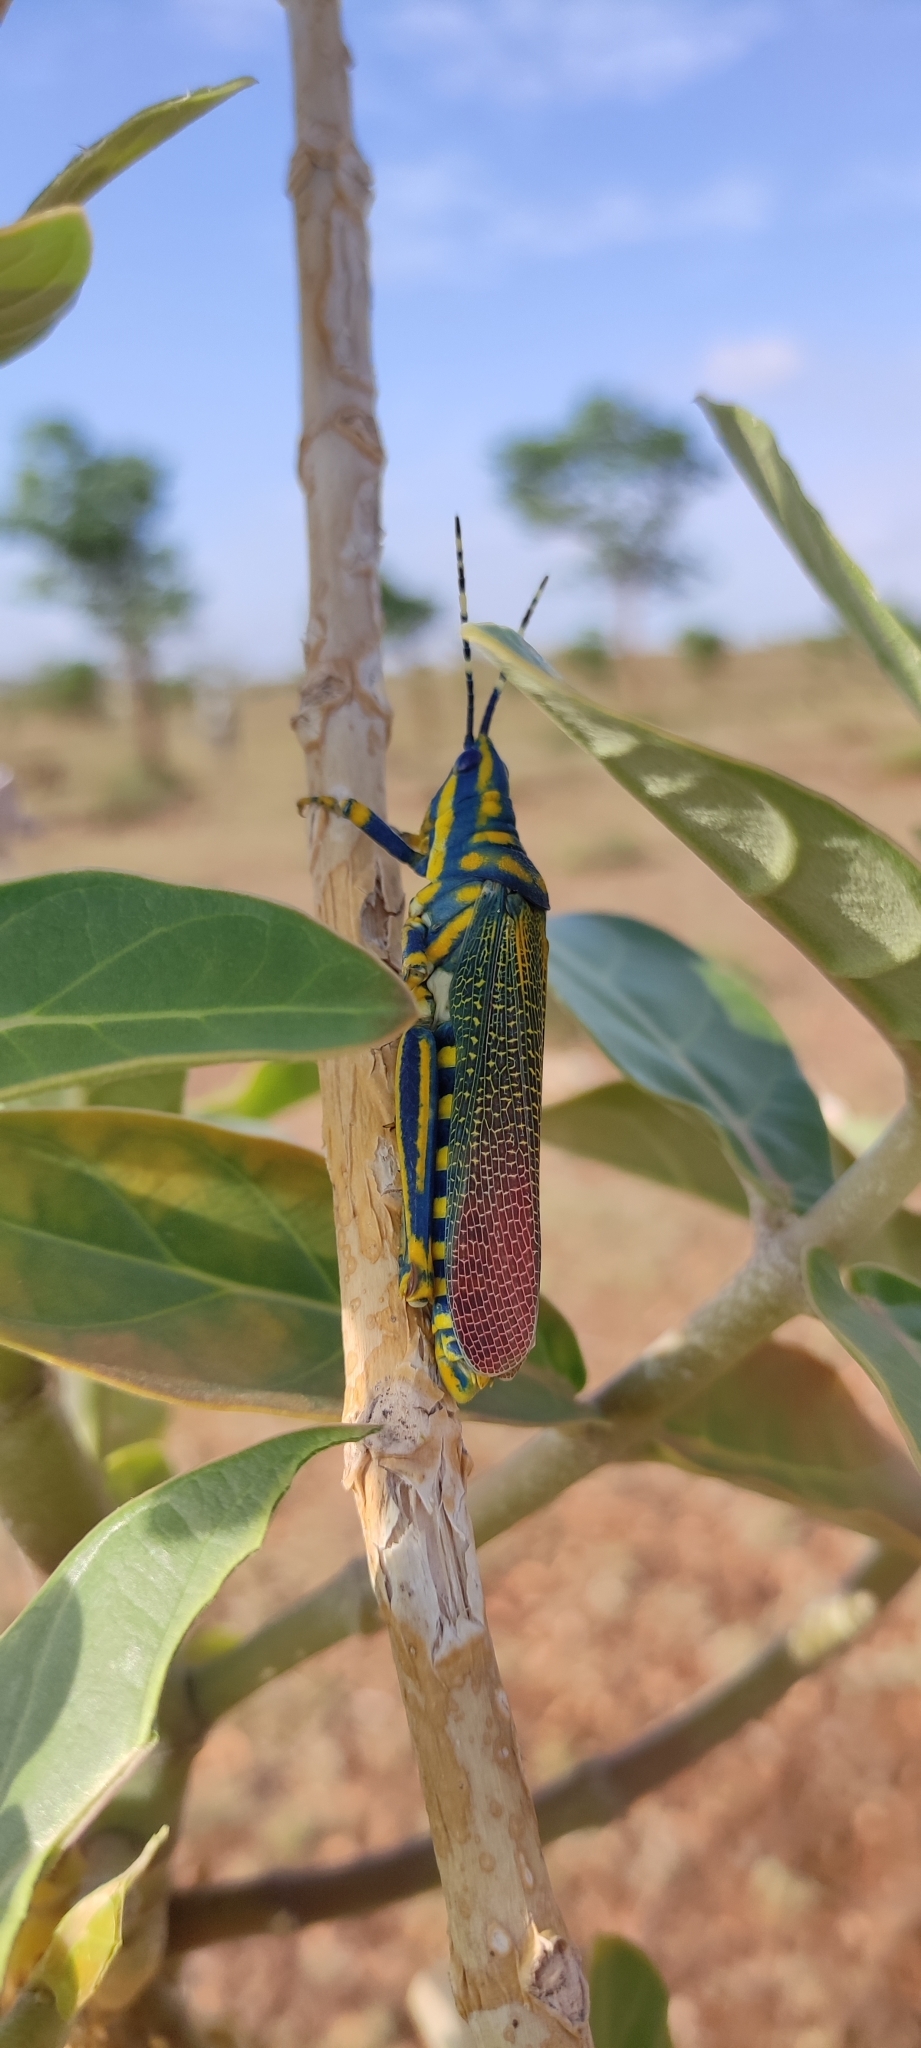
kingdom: Animalia
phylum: Arthropoda
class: Insecta
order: Orthoptera
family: Pyrgomorphidae
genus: Poekilocerus
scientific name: Poekilocerus pictus
